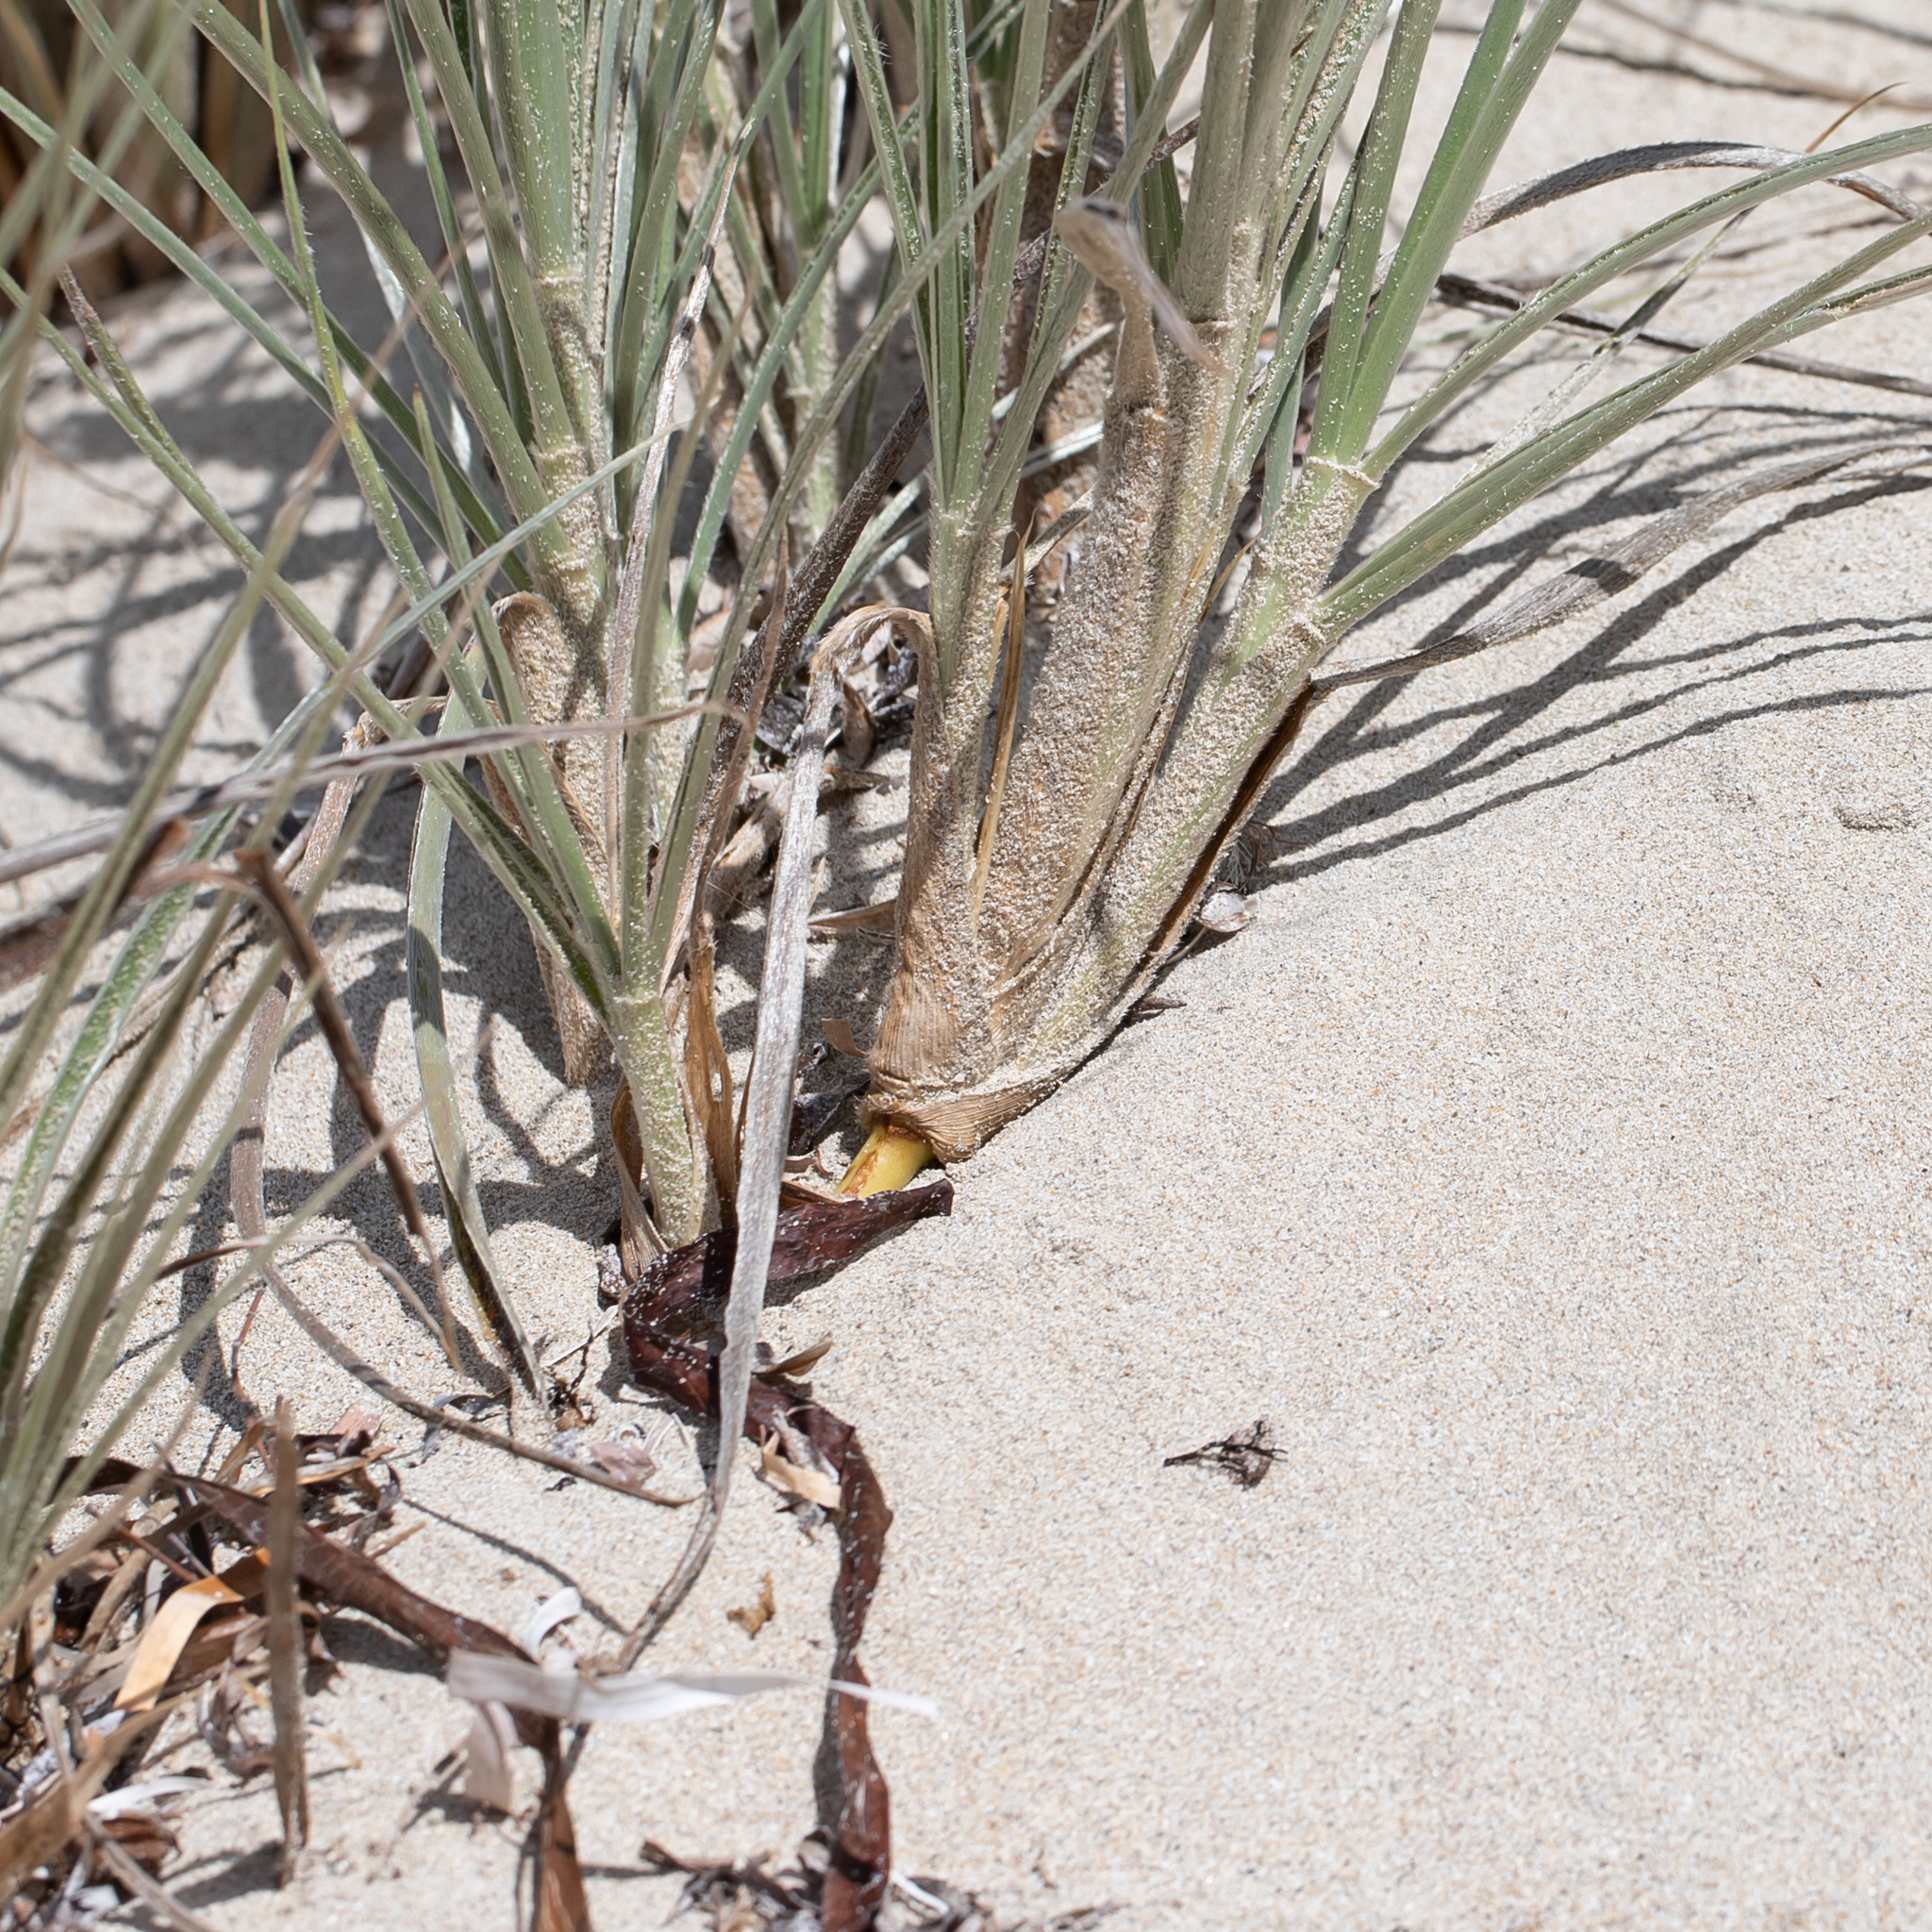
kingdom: Plantae
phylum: Tracheophyta
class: Liliopsida
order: Poales
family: Poaceae
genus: Spinifex
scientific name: Spinifex hirsutus
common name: Hairy spinifex
